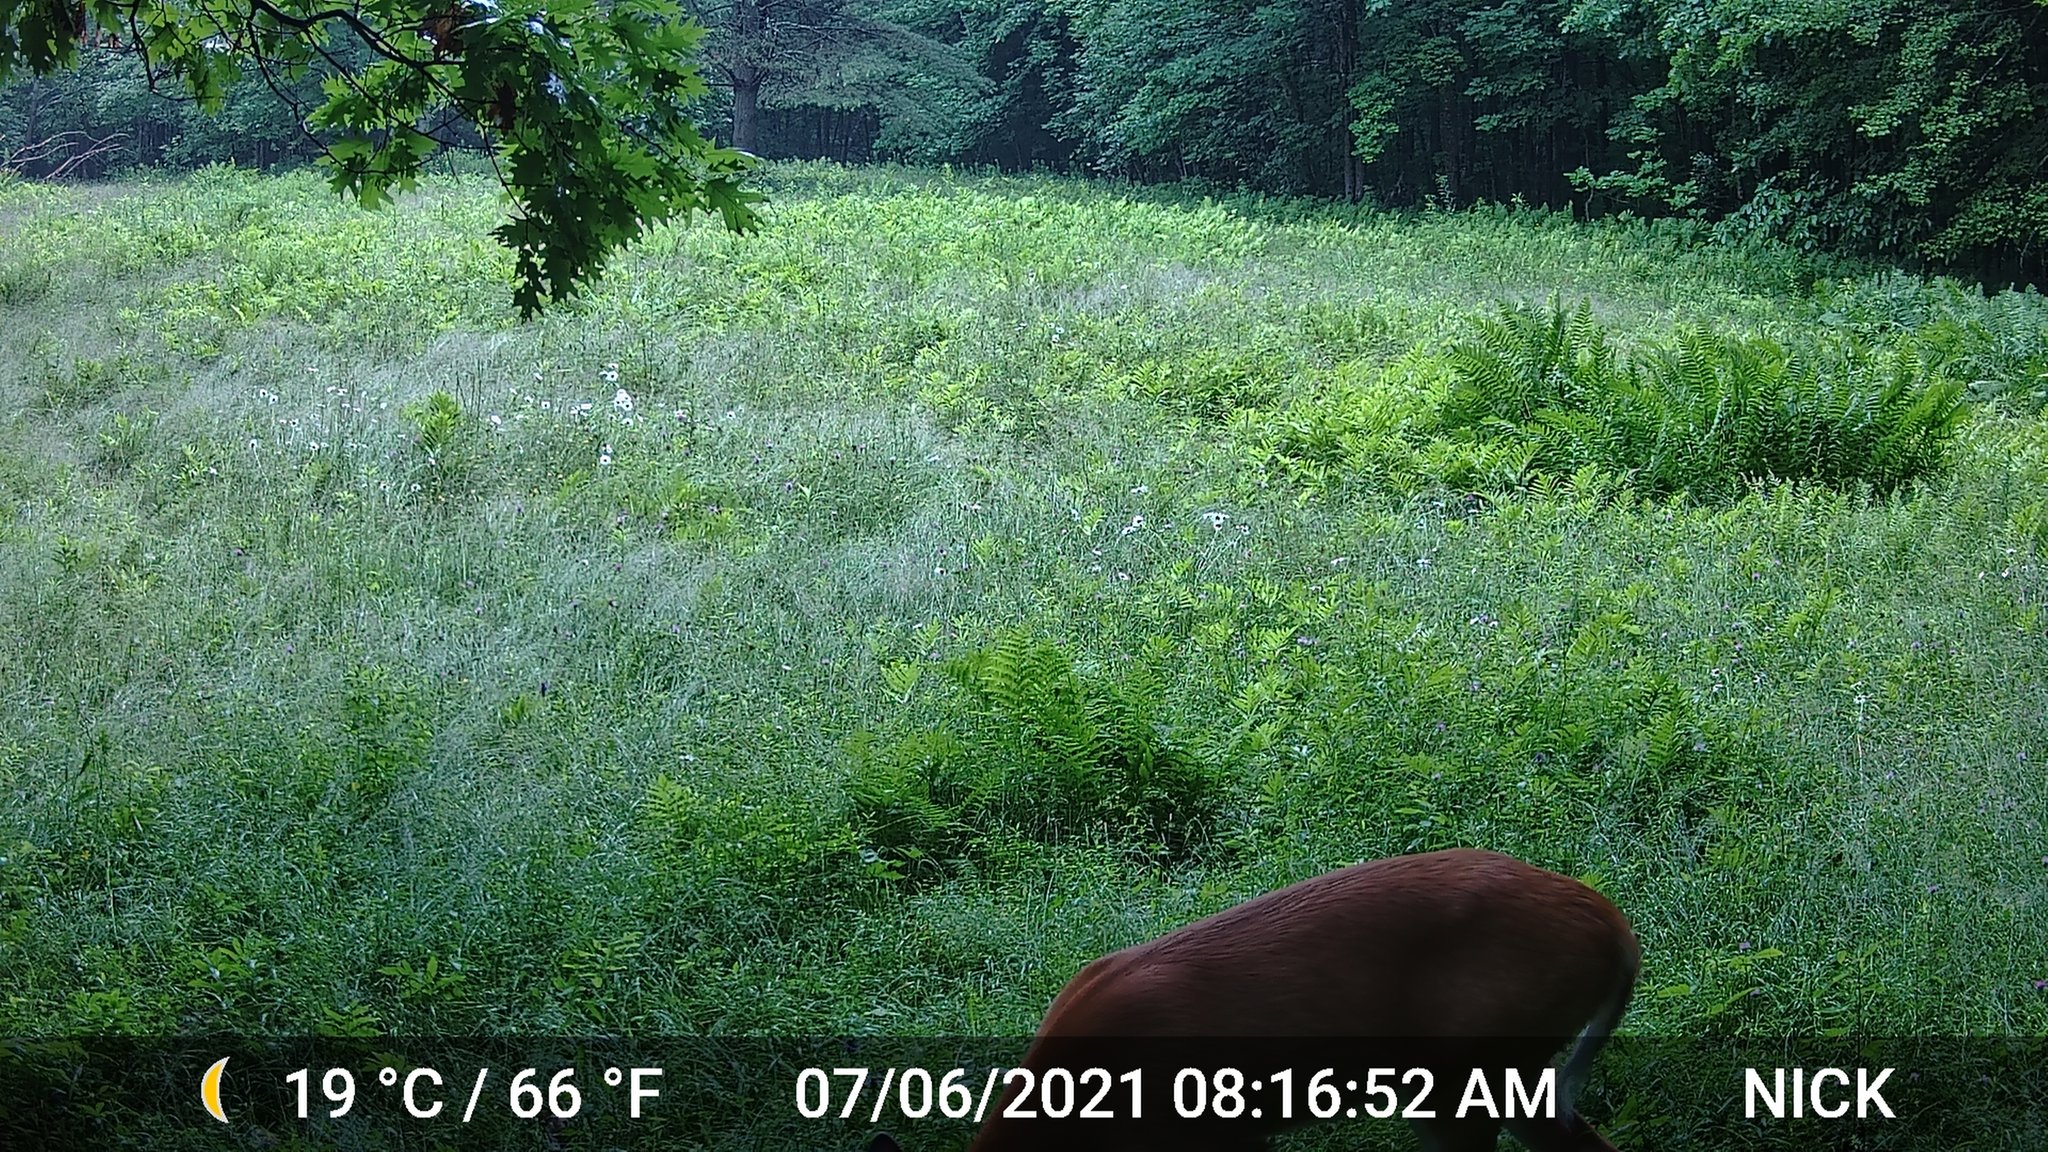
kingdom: Animalia
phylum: Chordata
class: Mammalia
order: Artiodactyla
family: Cervidae
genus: Odocoileus
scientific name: Odocoileus virginianus
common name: White-tailed deer
